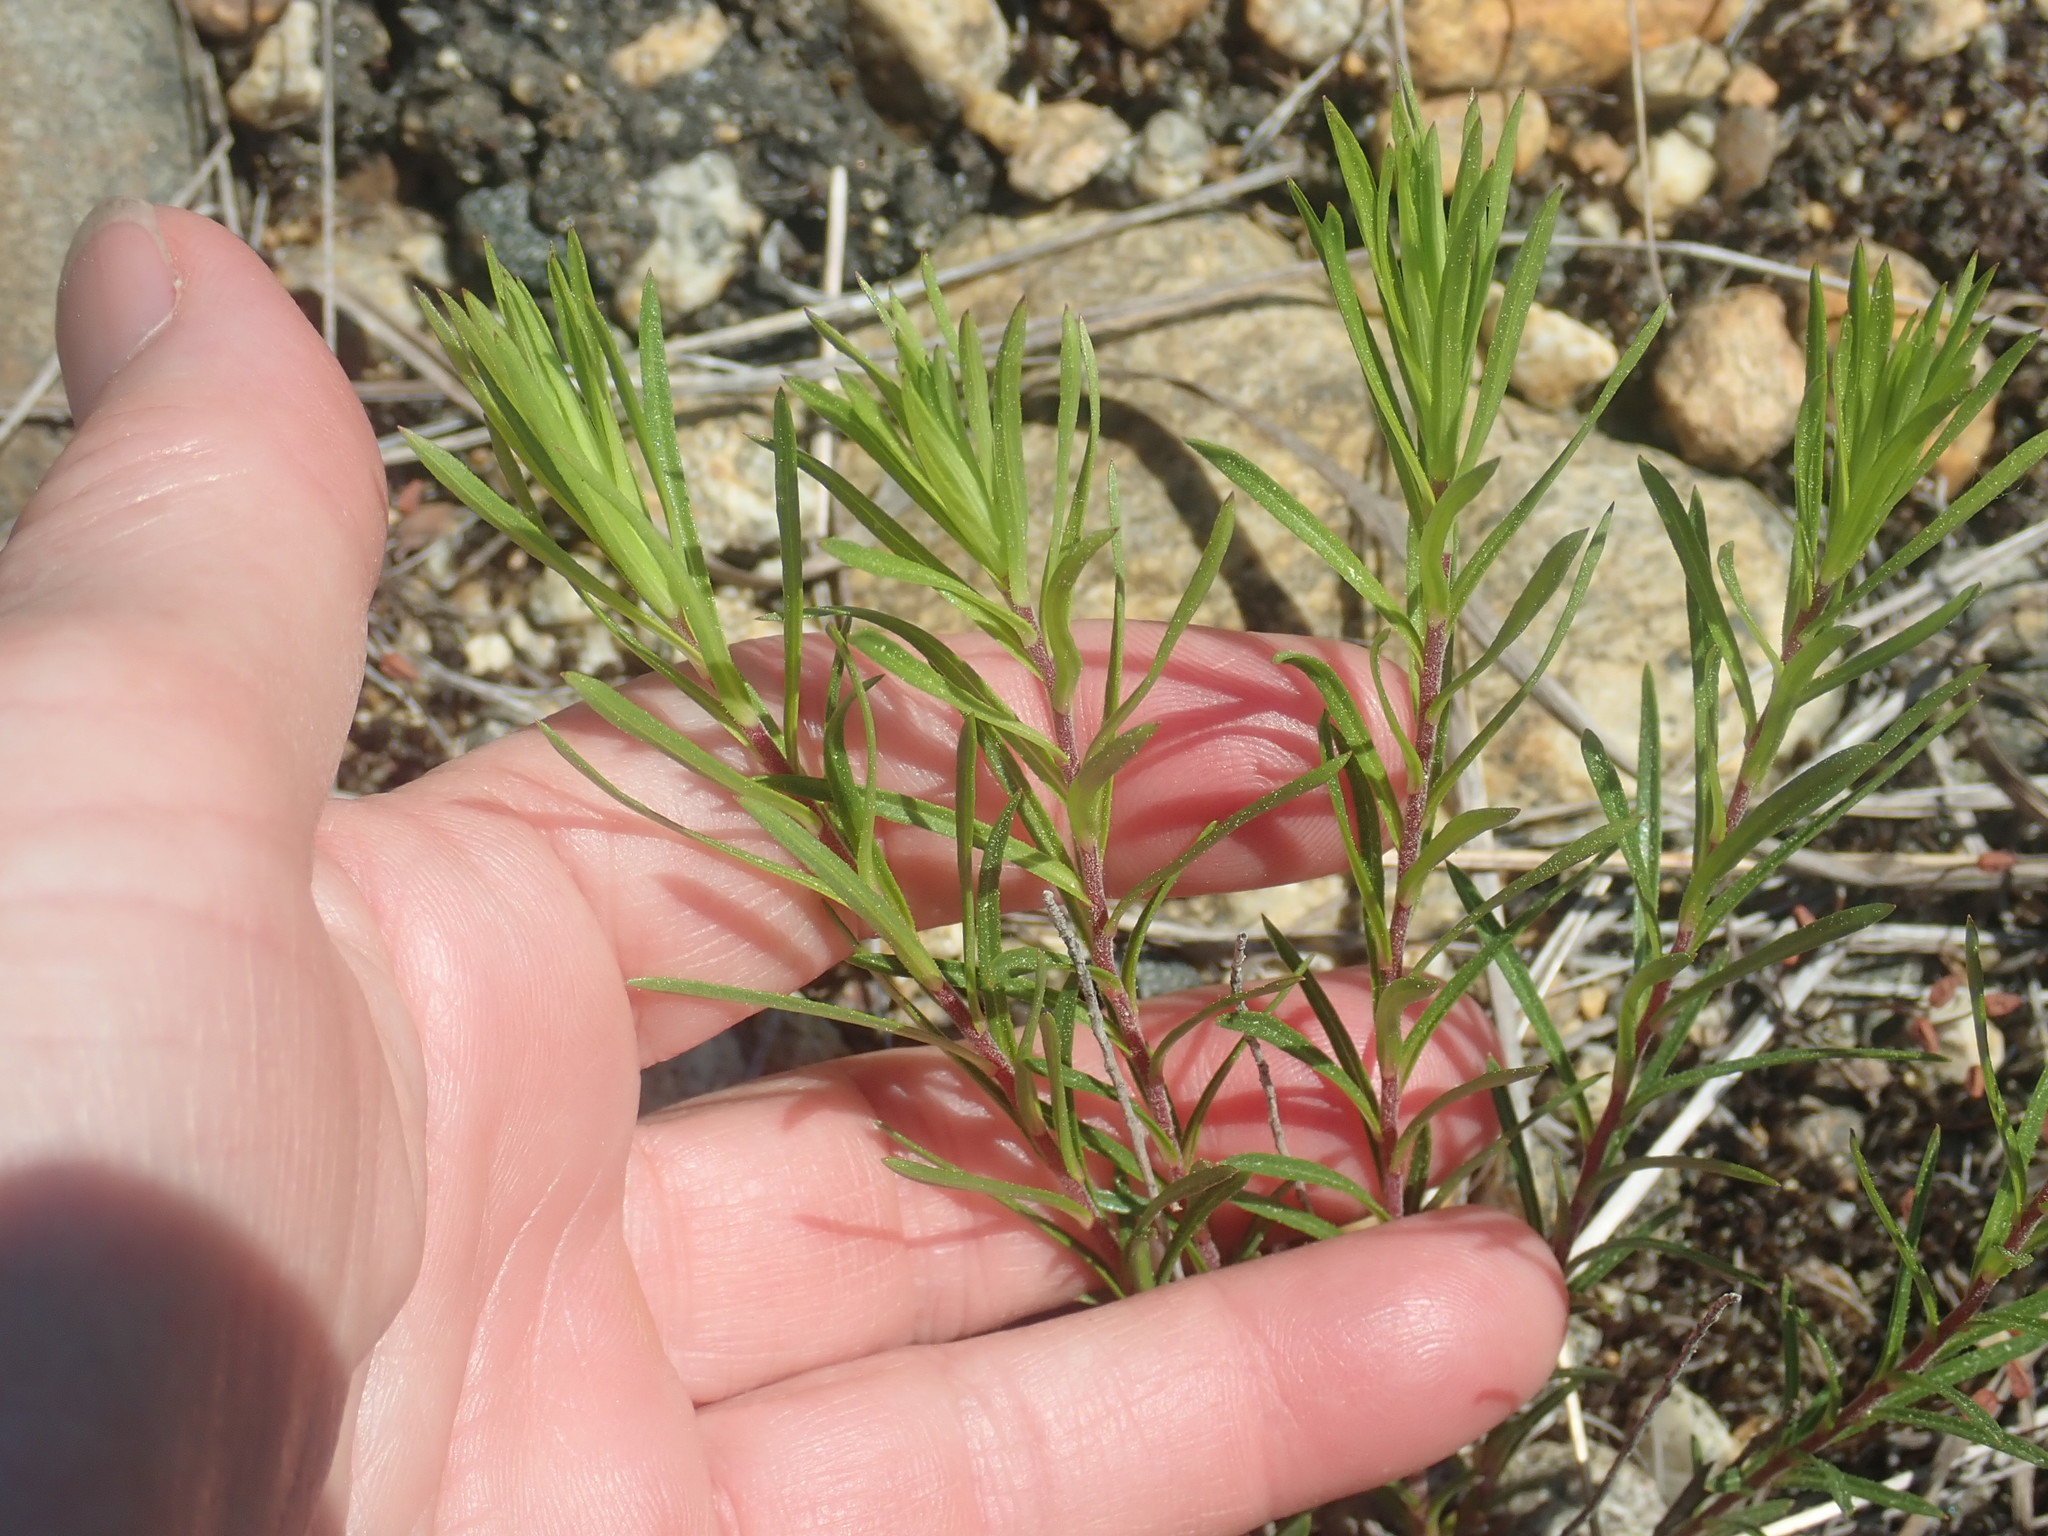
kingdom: Plantae
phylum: Tracheophyta
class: Magnoliopsida
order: Asterales
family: Asteraceae
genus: Ionactis
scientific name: Ionactis linariifolia
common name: Flax-leaf aster
